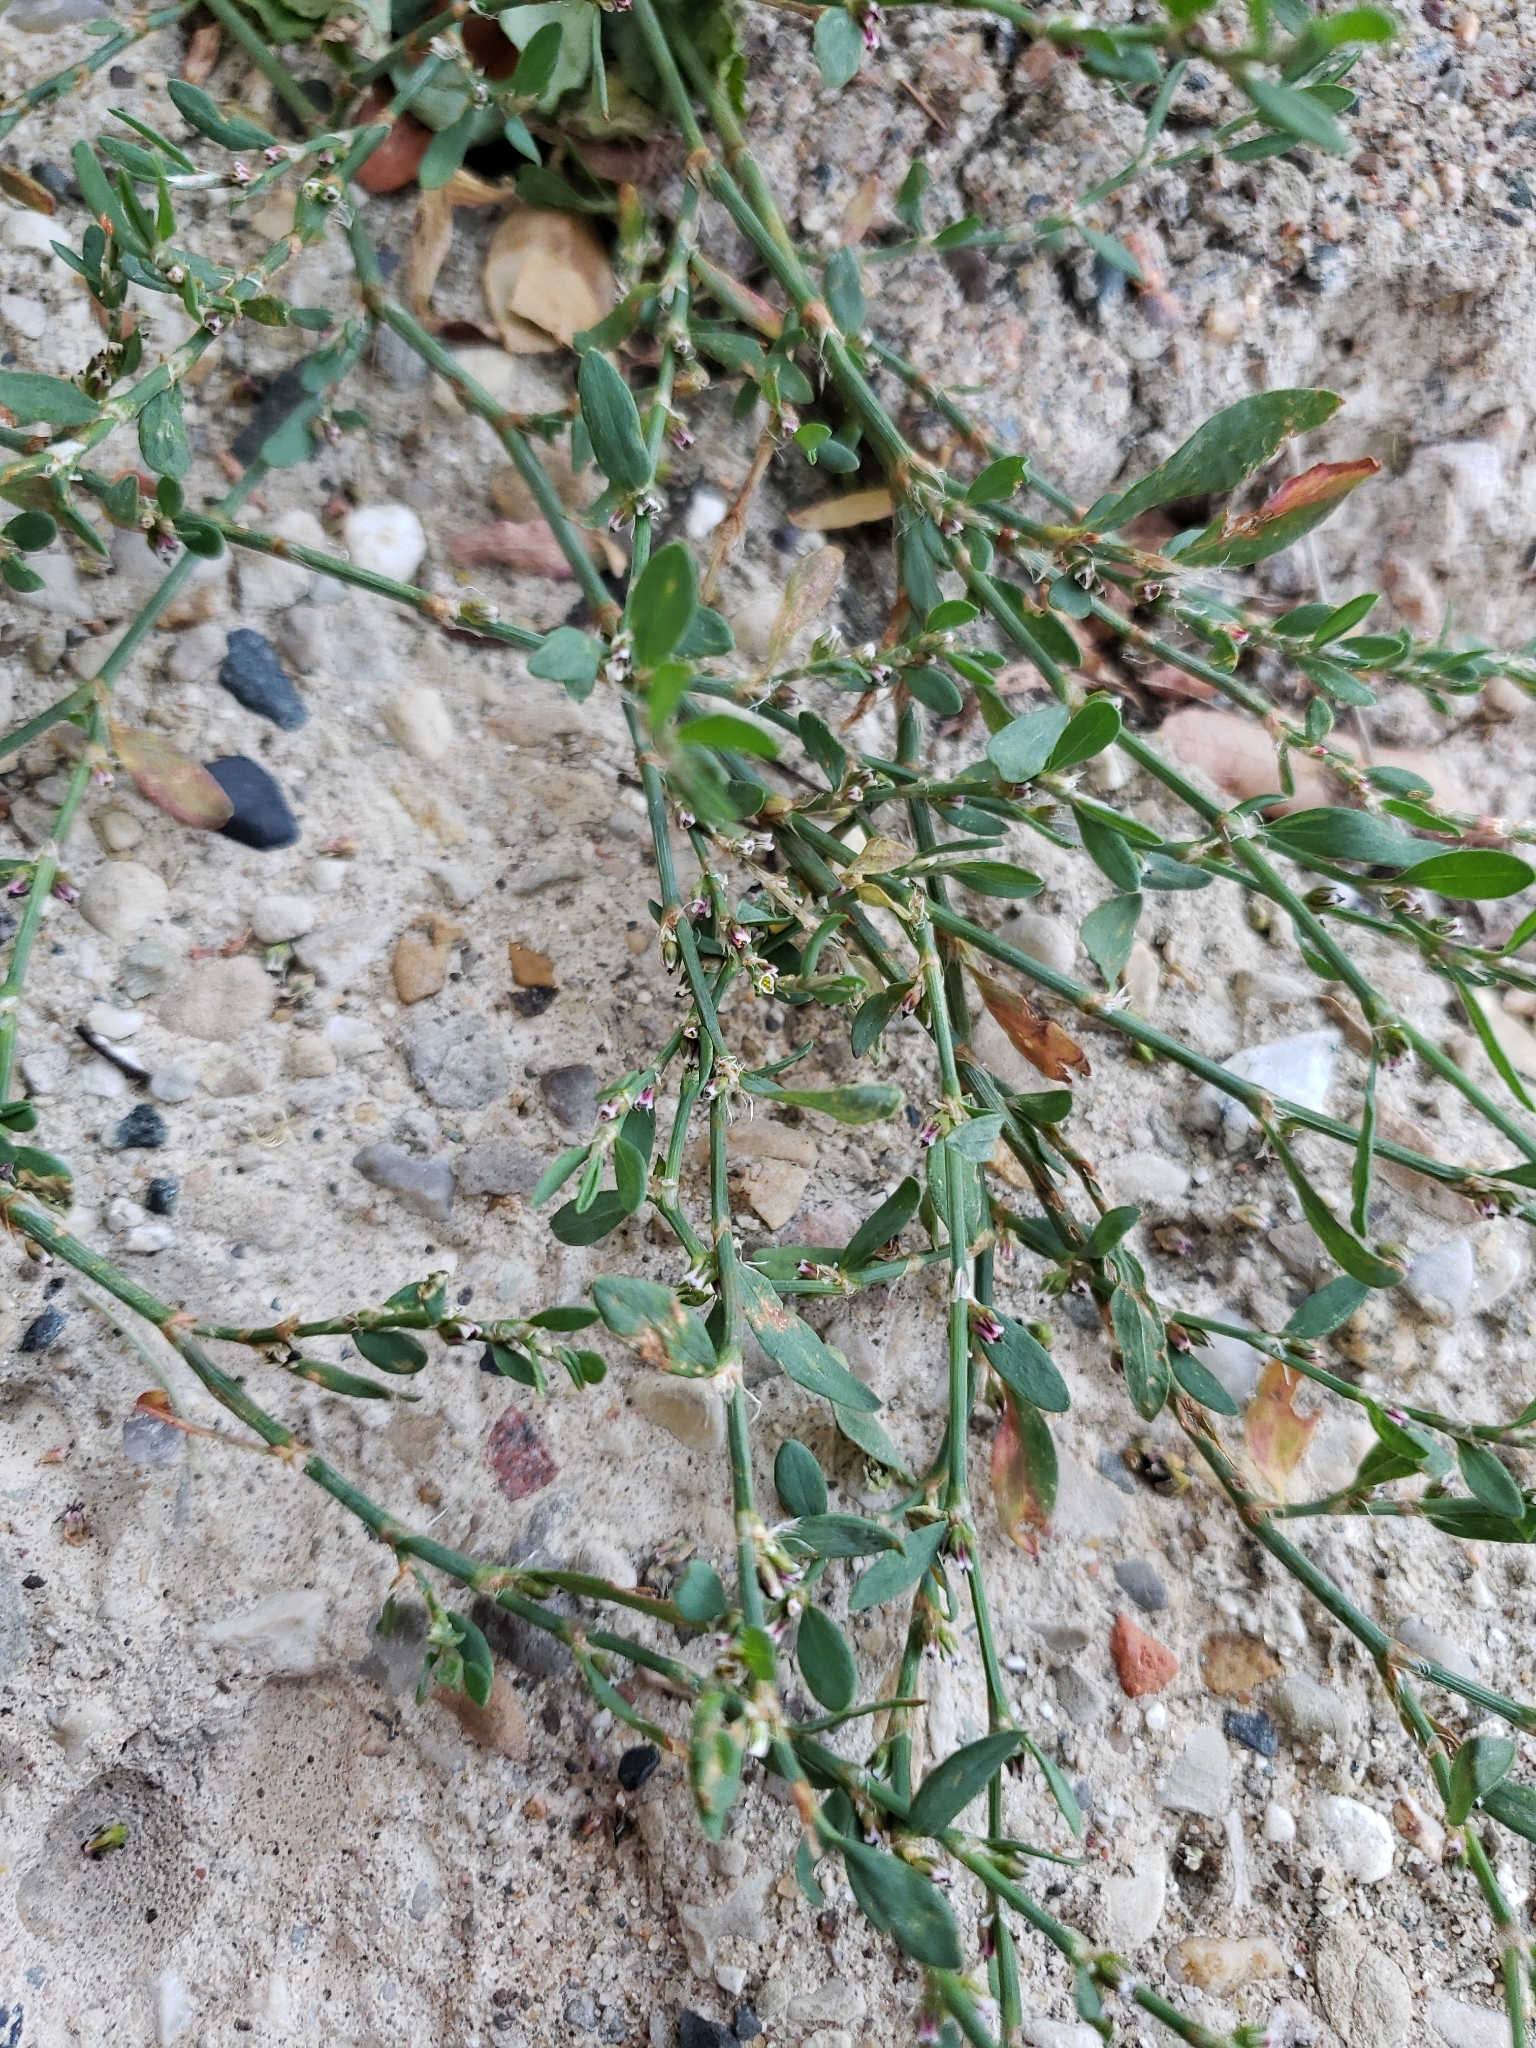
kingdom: Plantae
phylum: Tracheophyta
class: Magnoliopsida
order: Caryophyllales
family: Polygonaceae
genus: Polygonum
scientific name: Polygonum aviculare
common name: Prostrate knotweed
